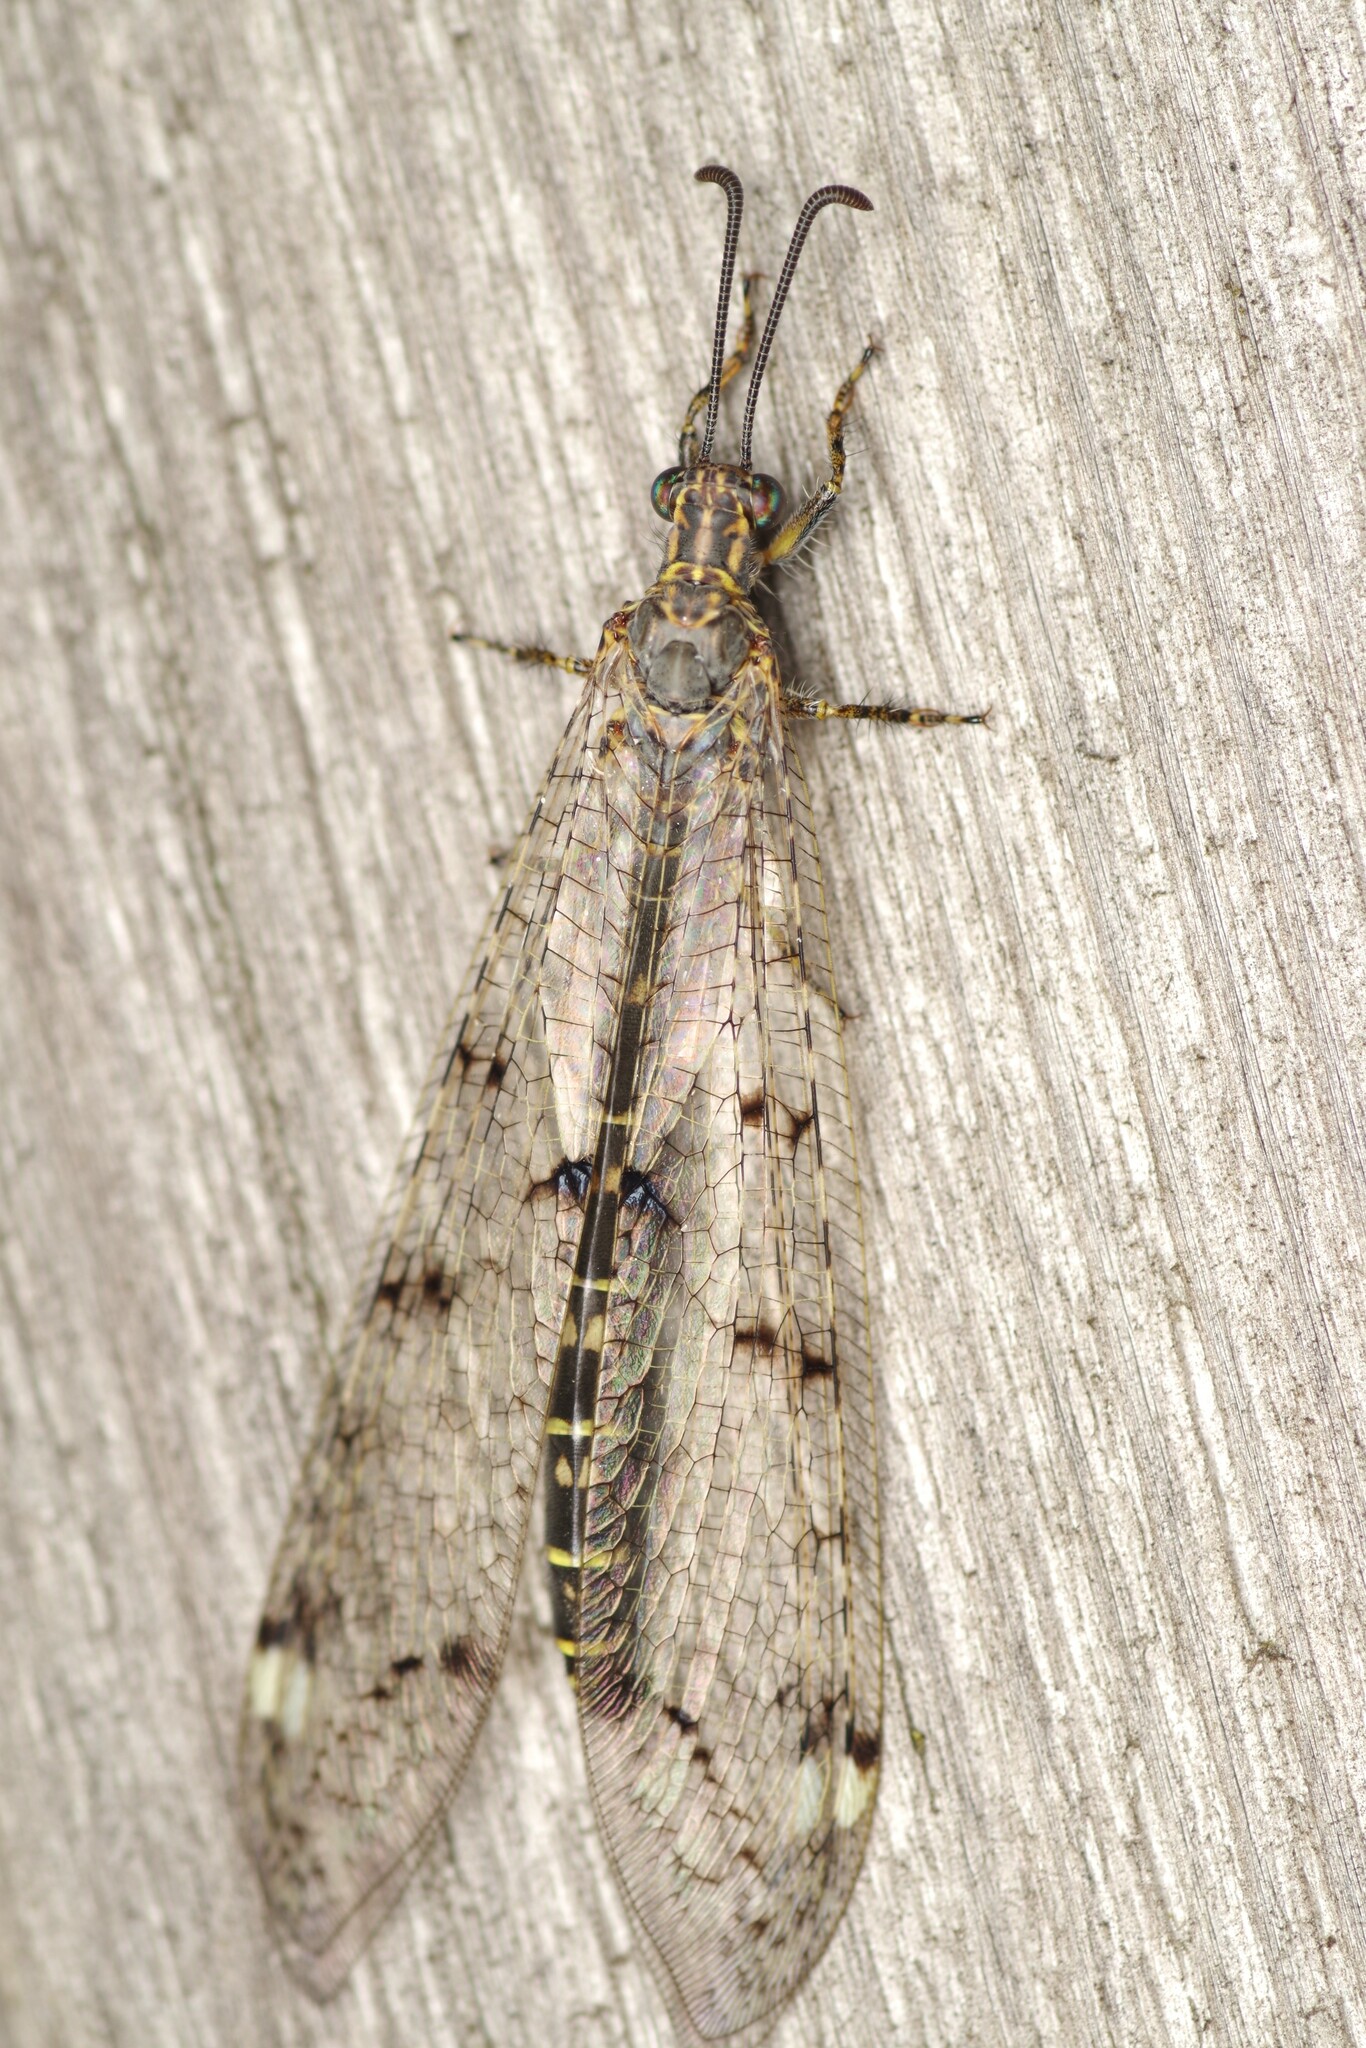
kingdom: Animalia
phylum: Arthropoda
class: Insecta
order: Neuroptera
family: Myrmeleontidae
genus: Distoleon
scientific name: Distoleon tetragrammicus
